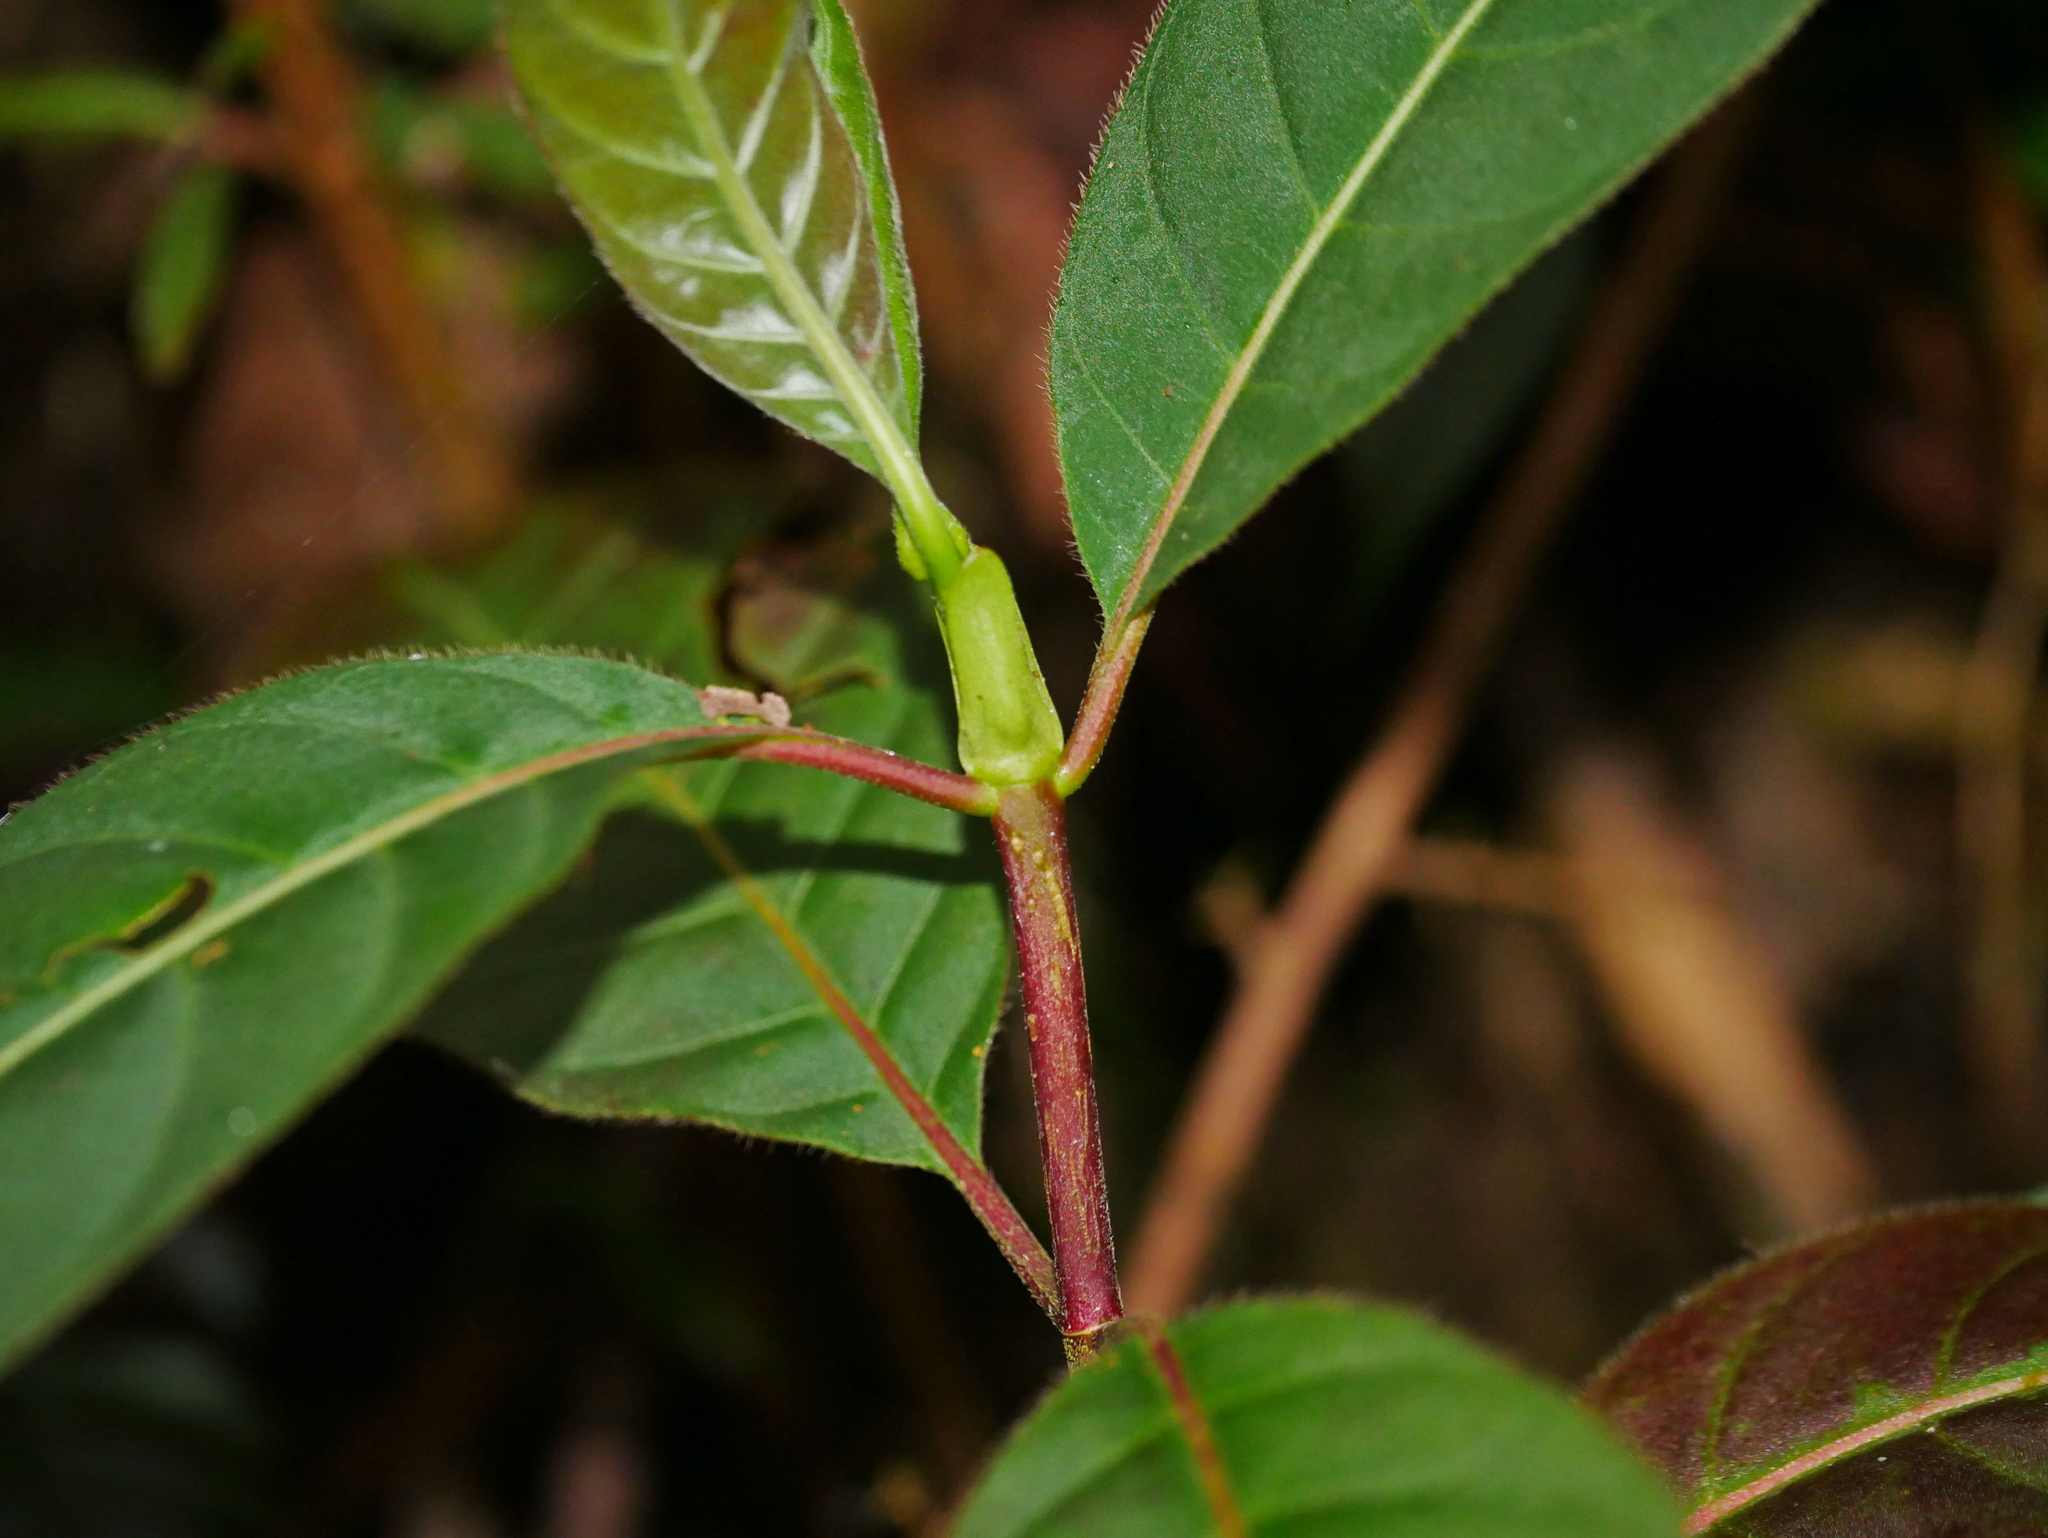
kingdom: Plantae
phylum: Tracheophyta
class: Magnoliopsida
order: Gentianales
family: Rubiaceae
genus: Cinchona
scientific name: Cinchona calisaya
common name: Ledgerbark
